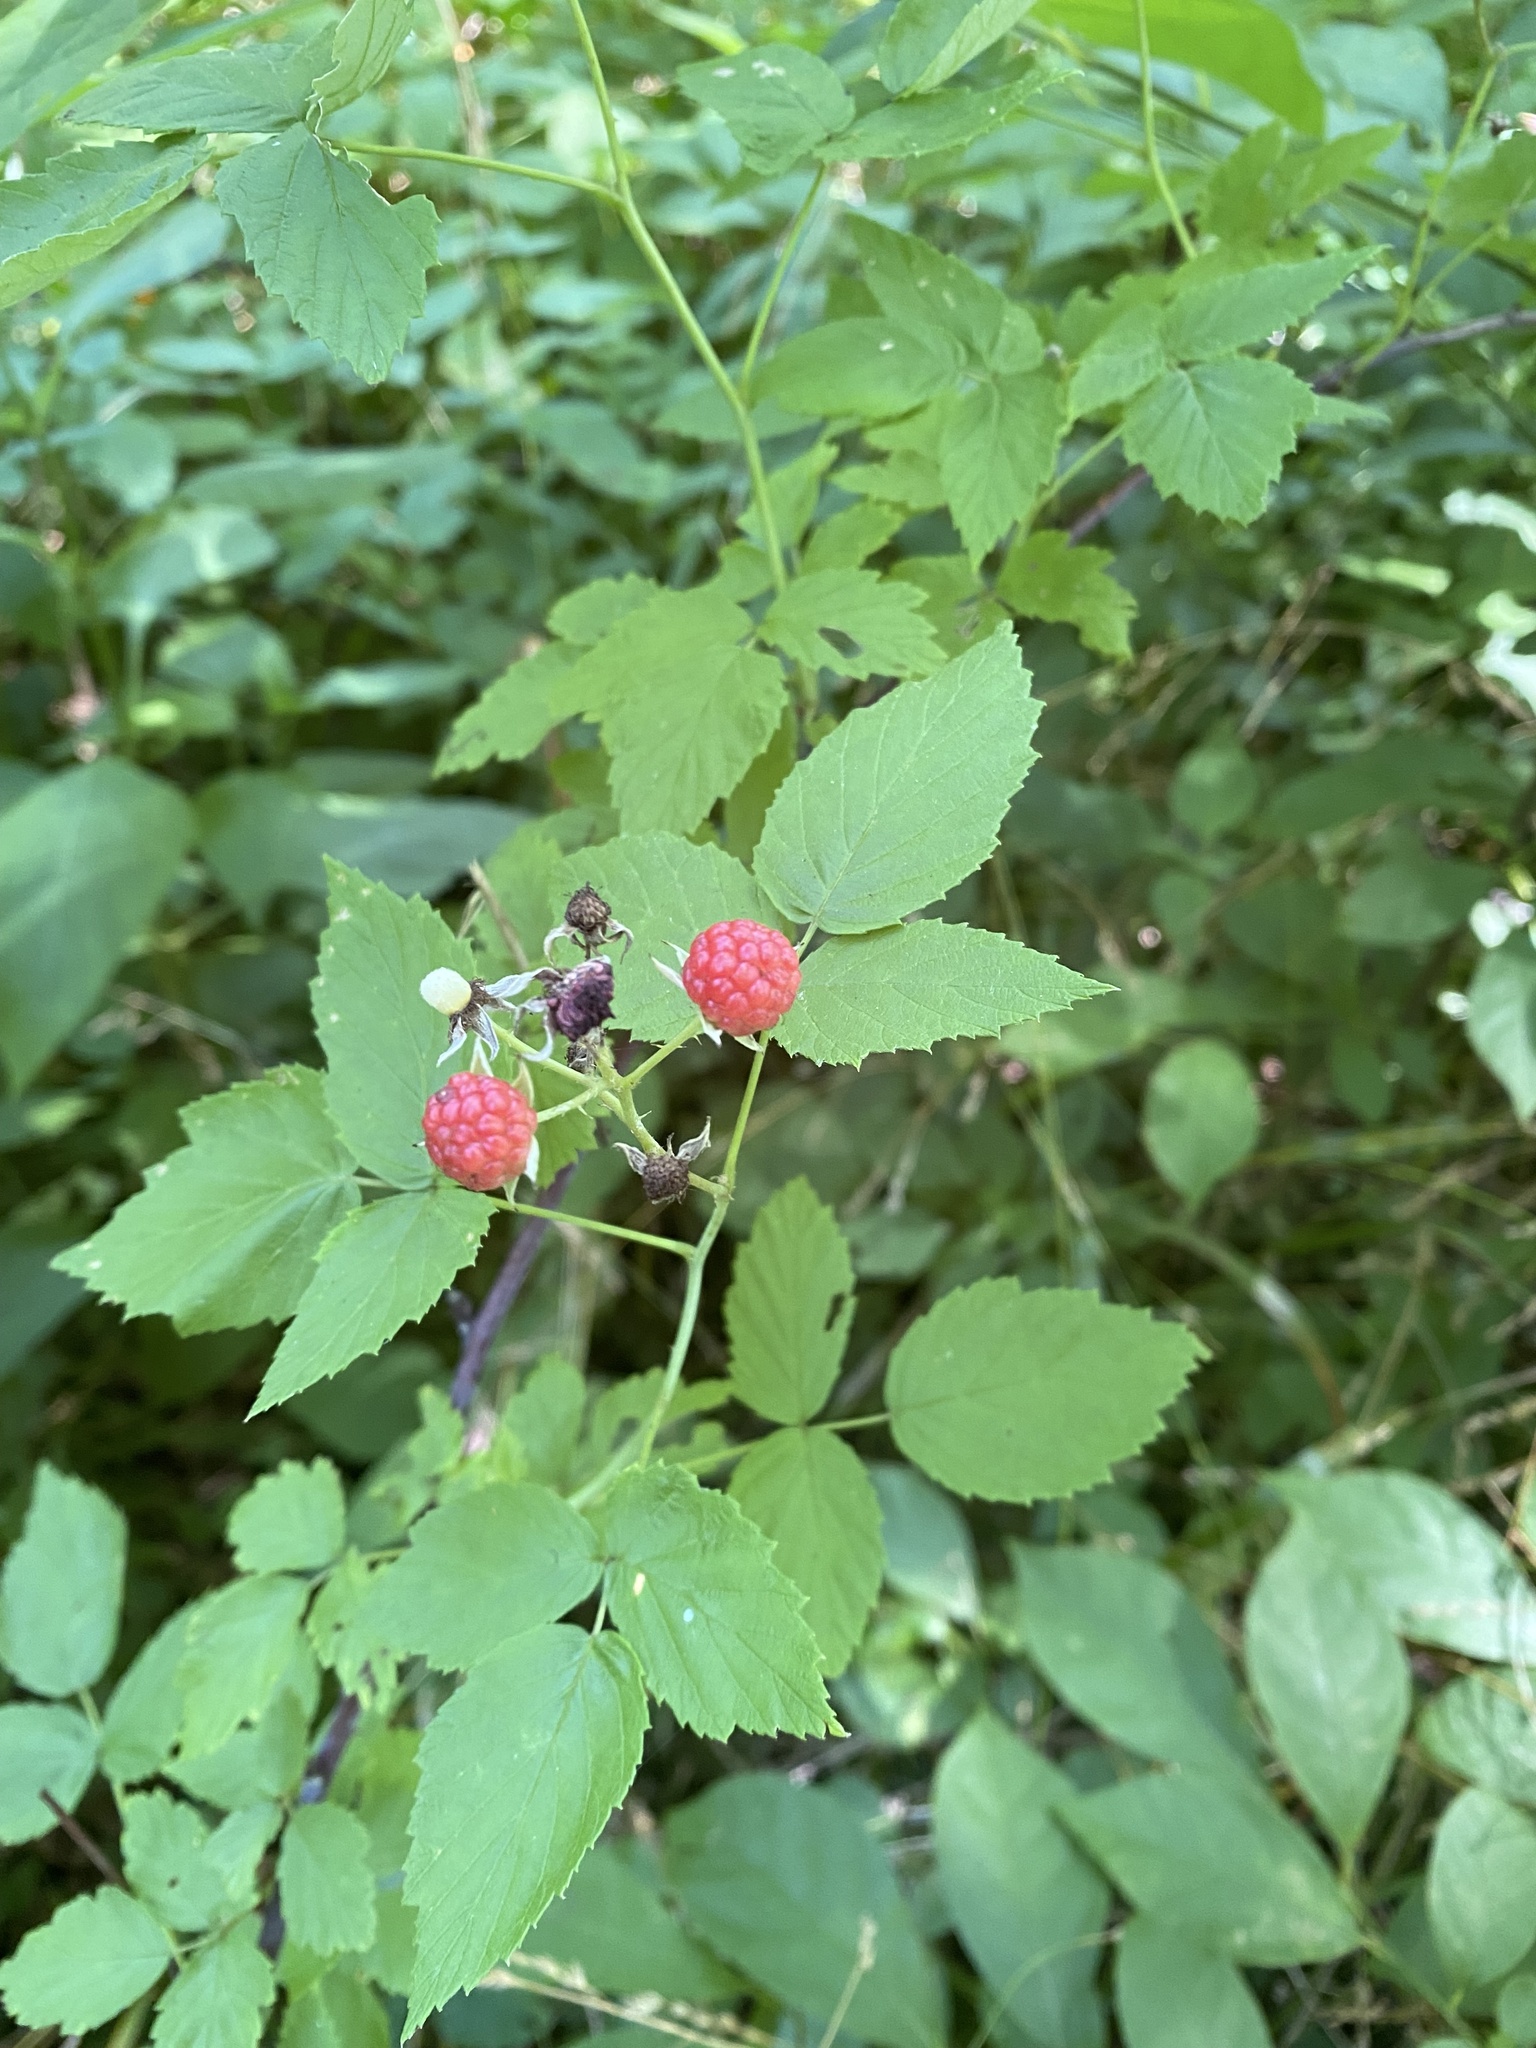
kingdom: Plantae
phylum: Tracheophyta
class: Magnoliopsida
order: Rosales
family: Rosaceae
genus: Rubus
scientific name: Rubus occidentalis
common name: Black raspberry
